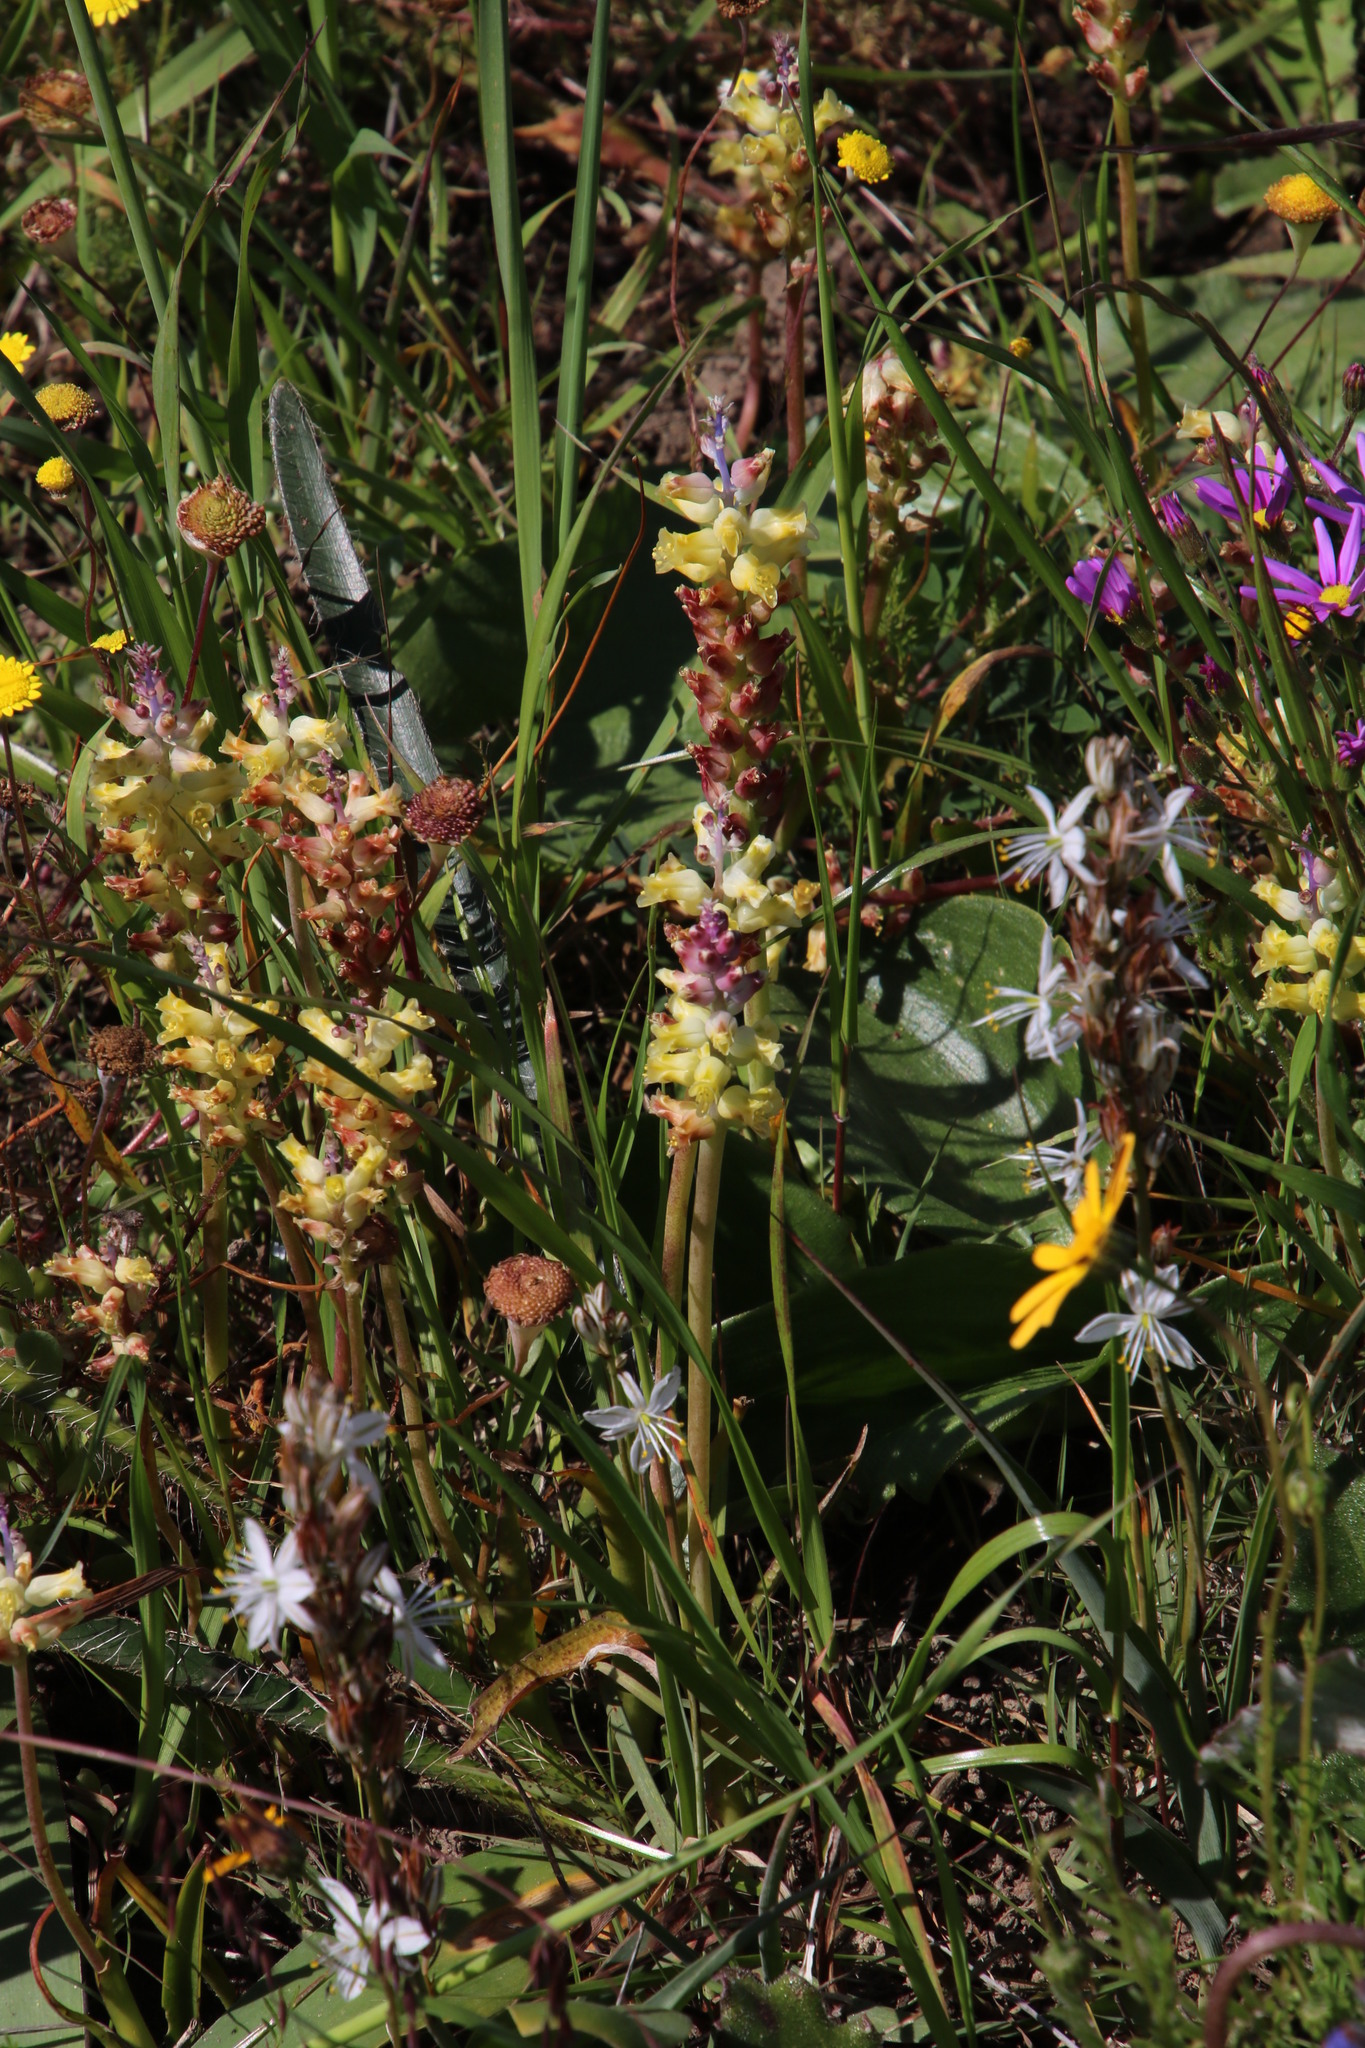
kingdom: Plantae
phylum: Tracheophyta
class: Liliopsida
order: Asparagales
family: Asparagaceae
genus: Lachenalia
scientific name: Lachenalia pallida
